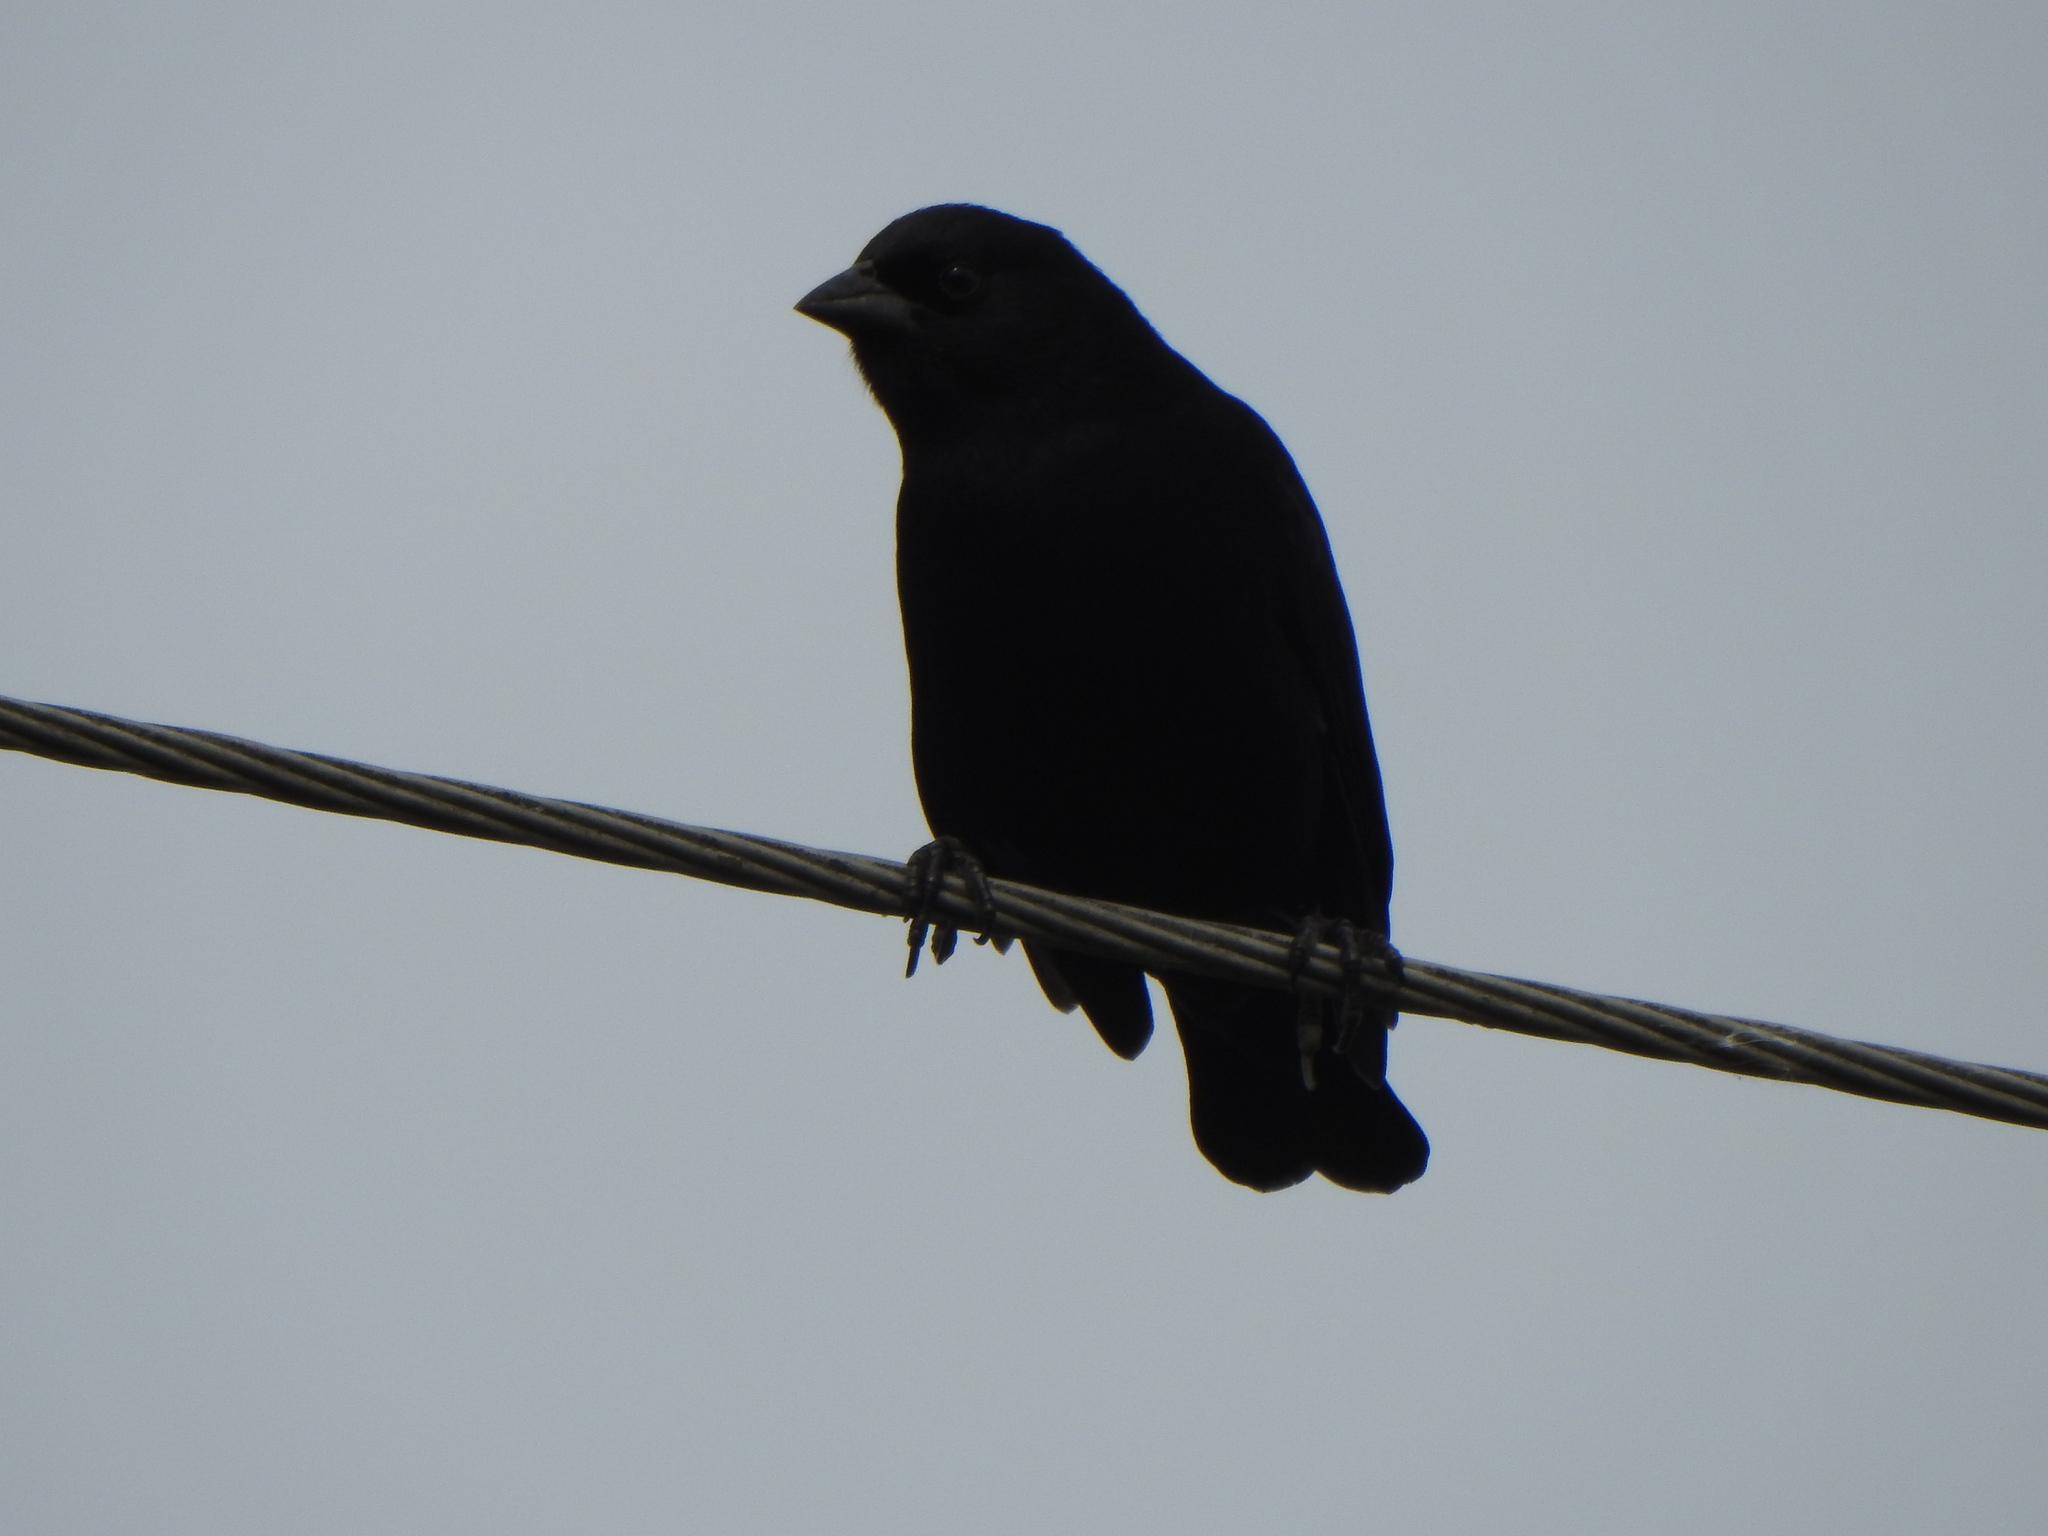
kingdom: Animalia
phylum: Chordata
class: Aves
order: Passeriformes
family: Icteridae
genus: Molothrus
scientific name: Molothrus rufoaxillaris
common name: Screaming cowbird
